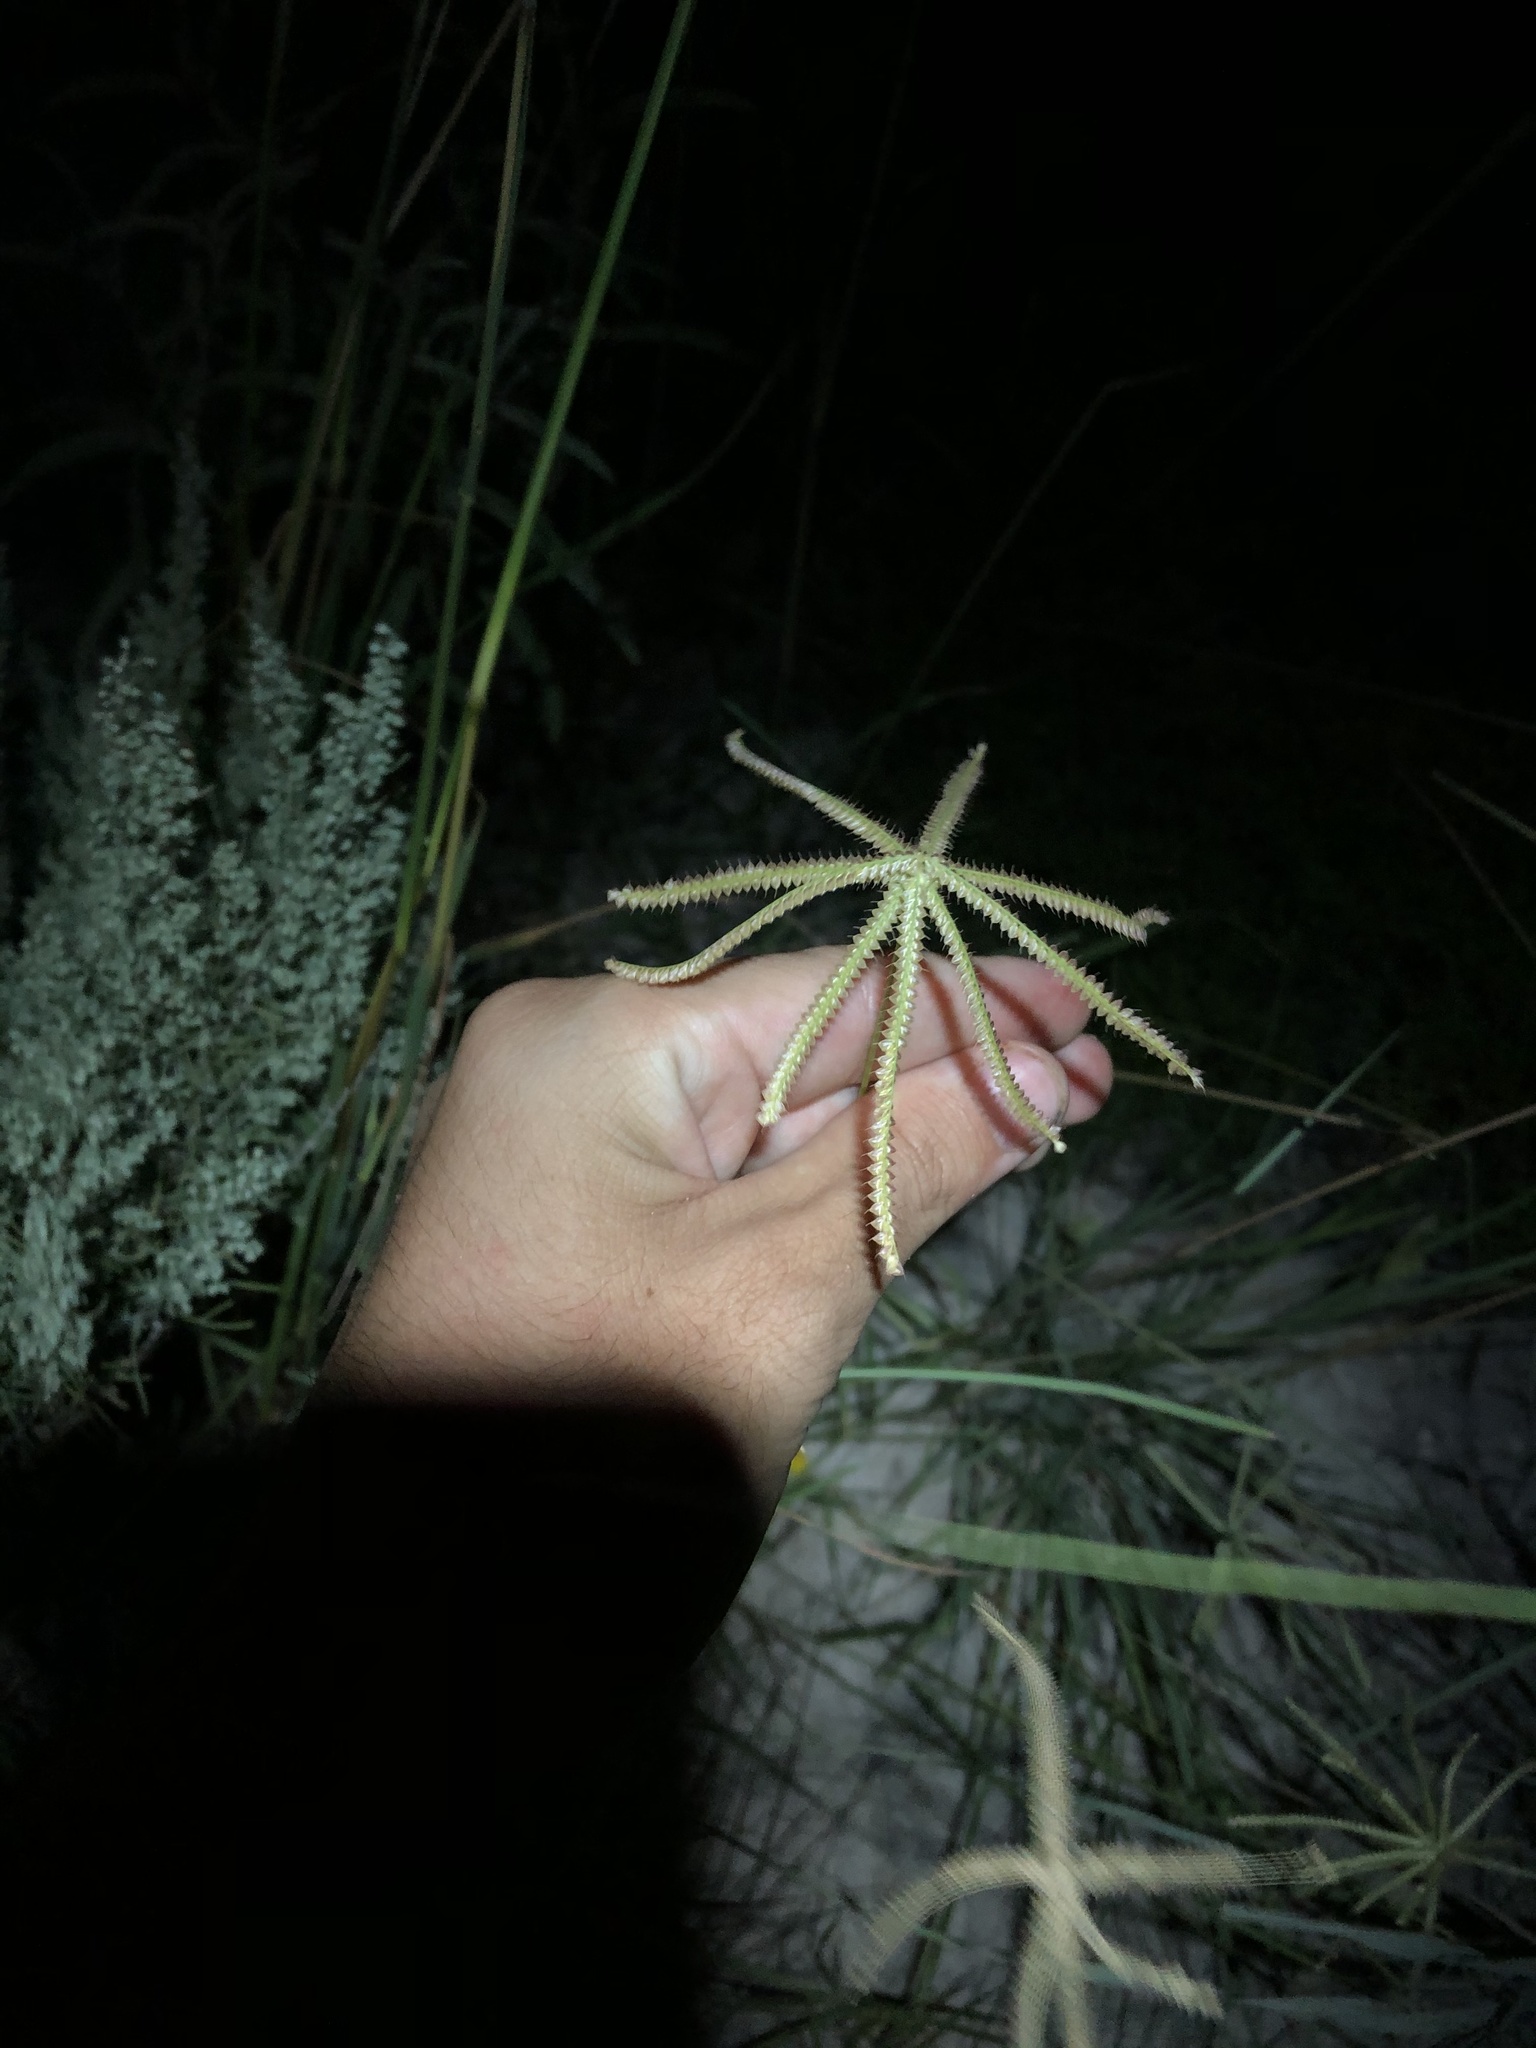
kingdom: Plantae
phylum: Tracheophyta
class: Liliopsida
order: Poales
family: Poaceae
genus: Chloris
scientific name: Chloris cucullata
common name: Hooded windmill grass
